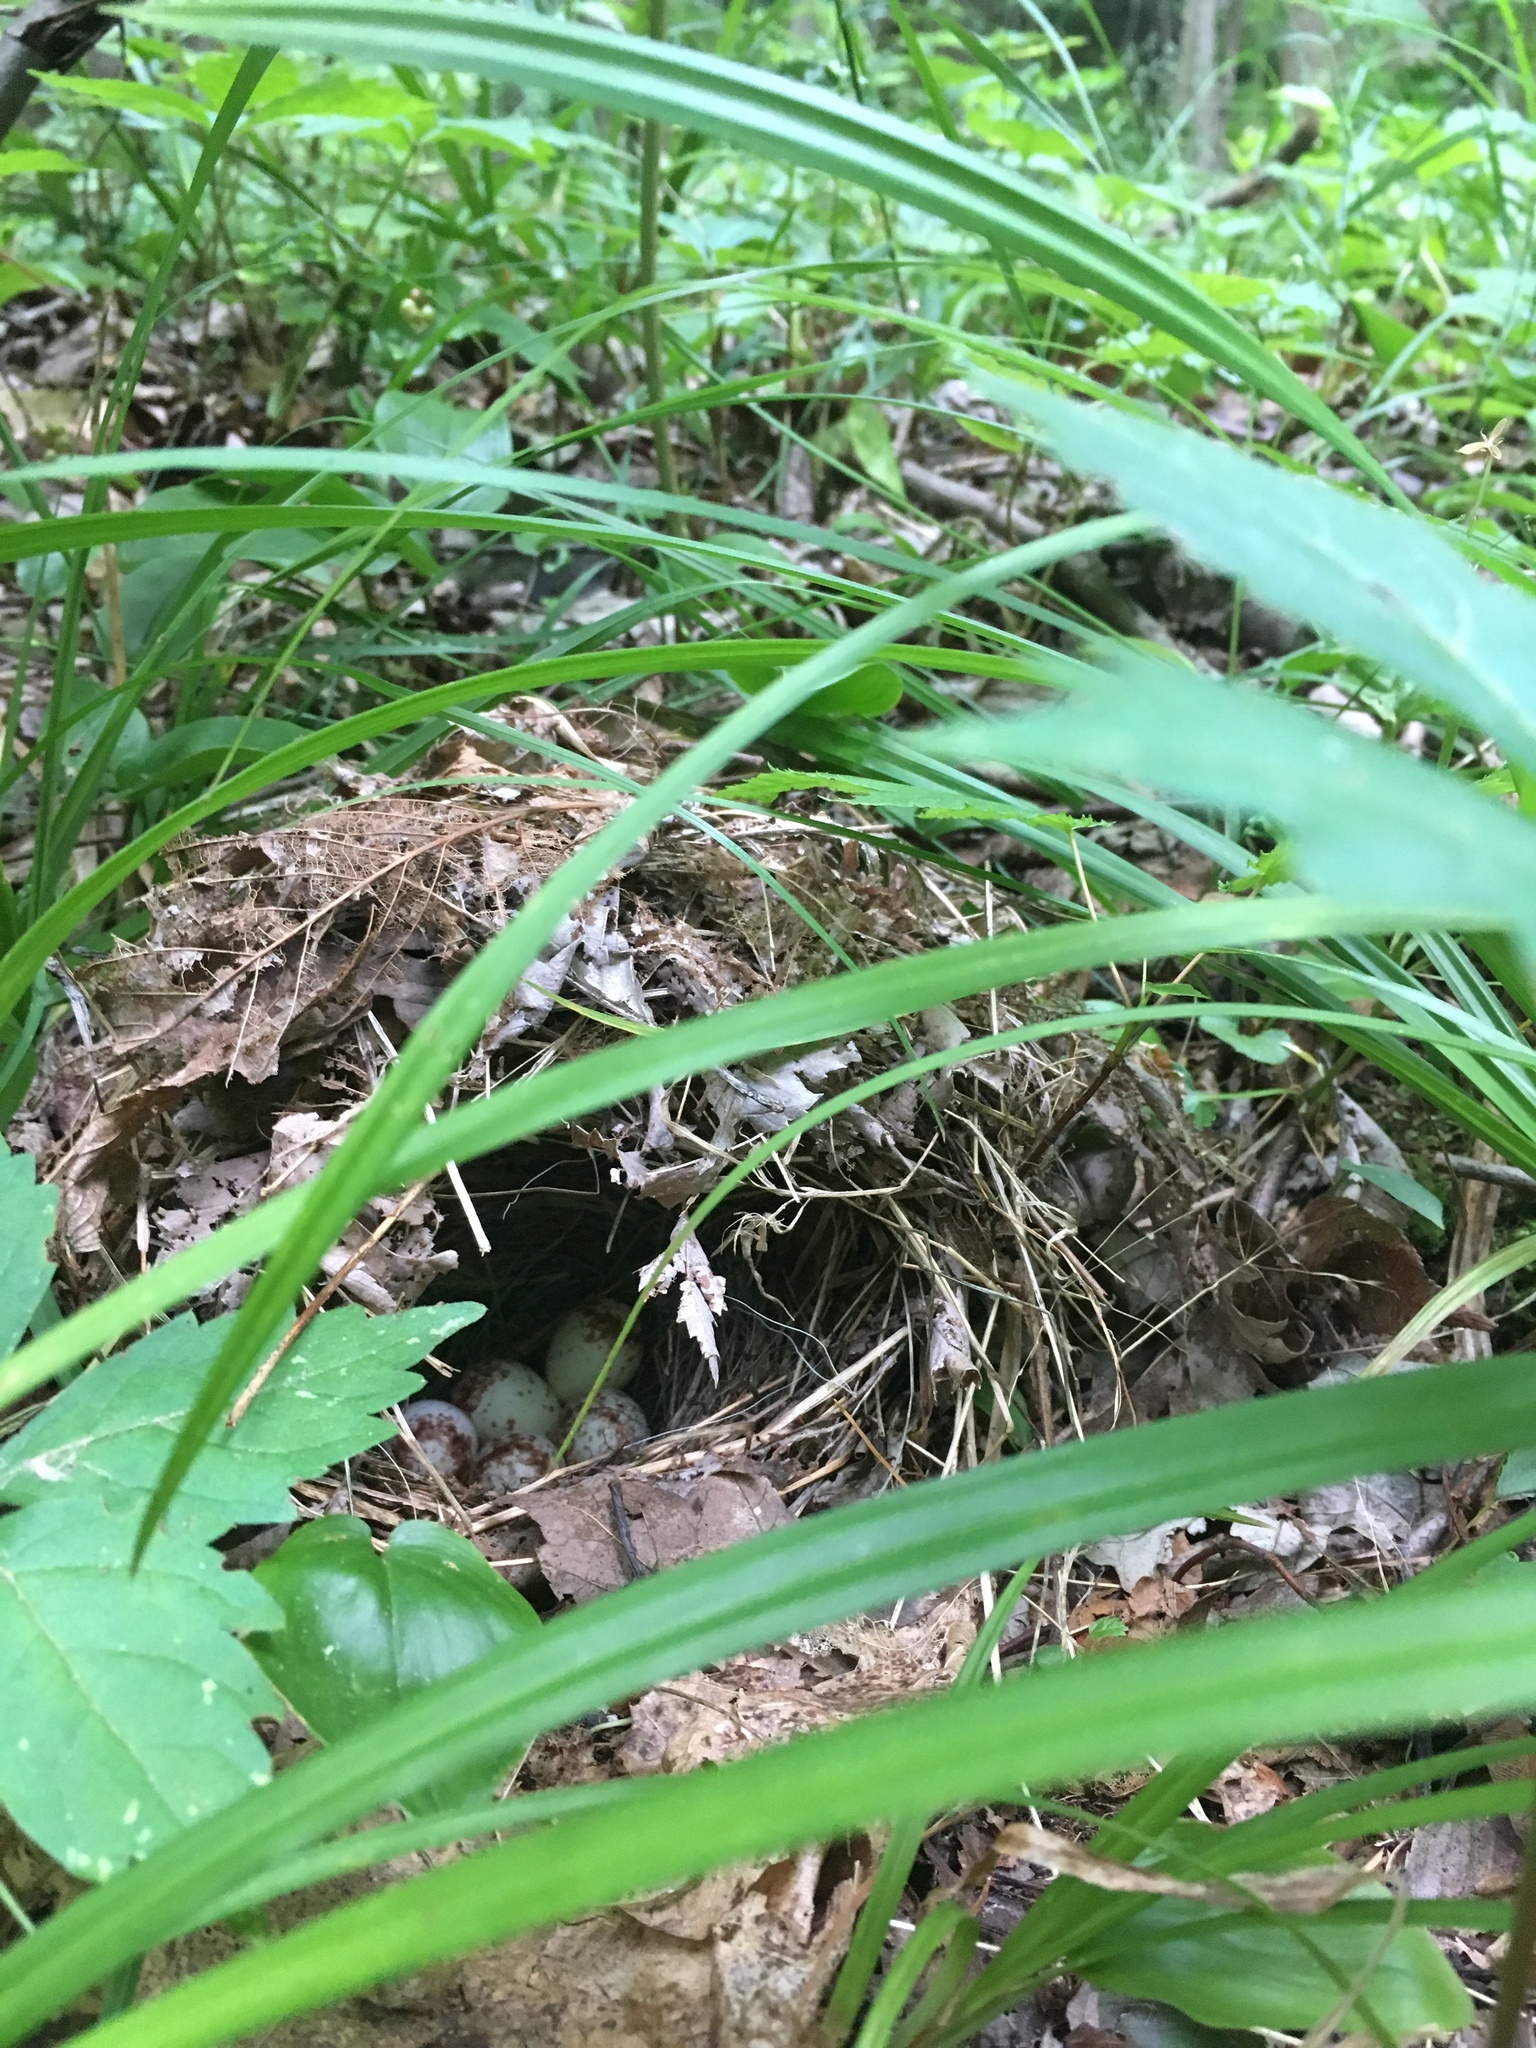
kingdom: Animalia
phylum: Chordata
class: Aves
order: Passeriformes
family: Parulidae
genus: Seiurus
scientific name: Seiurus aurocapilla
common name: Ovenbird
